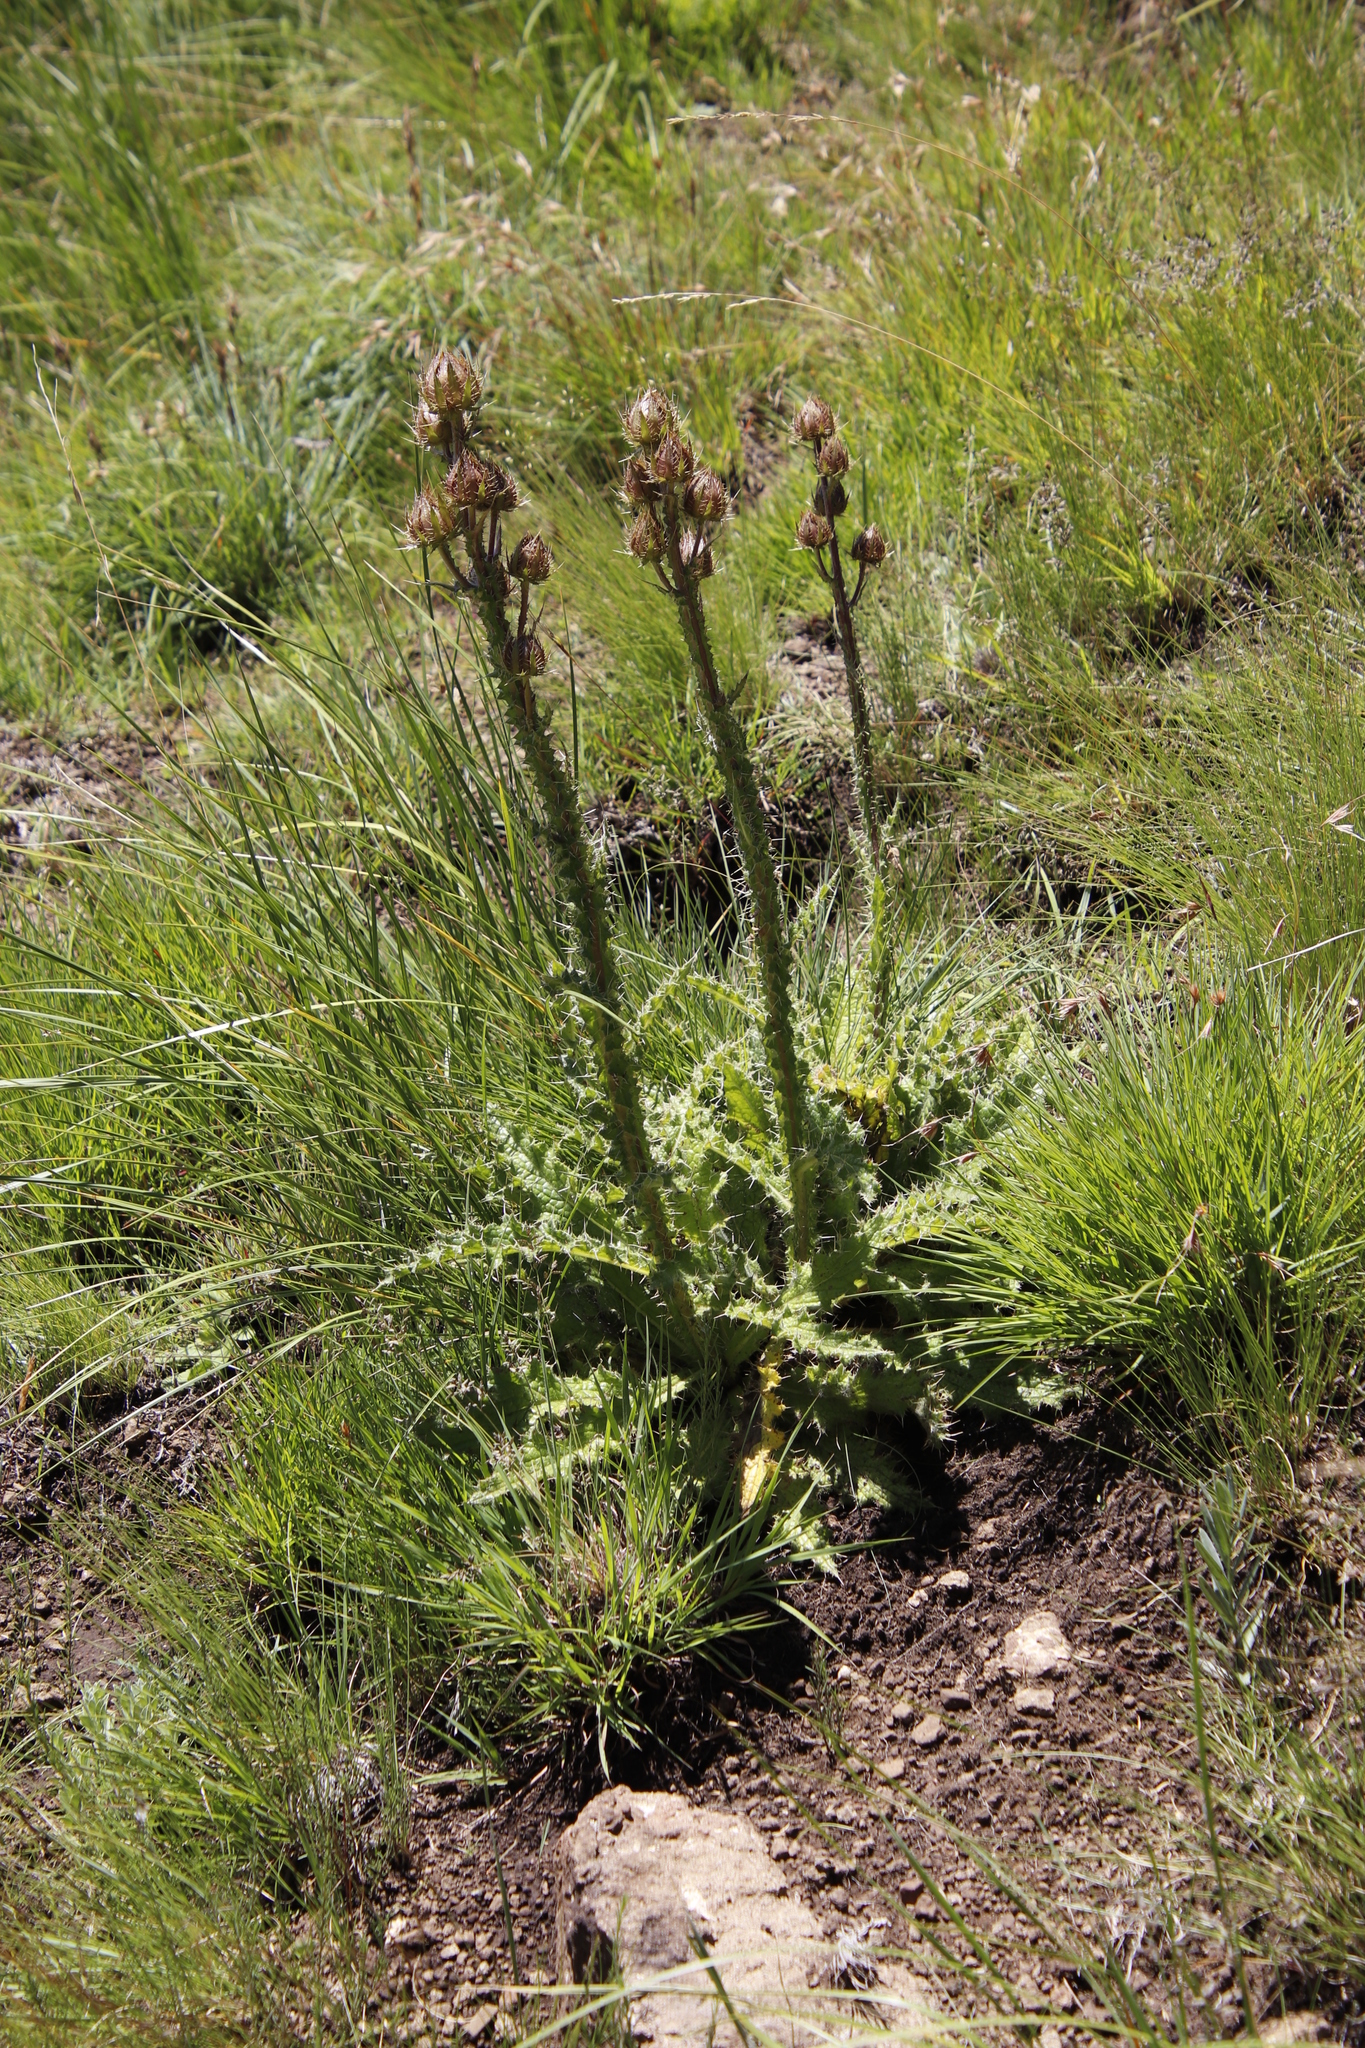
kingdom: Plantae
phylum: Tracheophyta
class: Magnoliopsida
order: Asterales
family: Asteraceae
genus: Berkheya
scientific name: Berkheya purpurea
